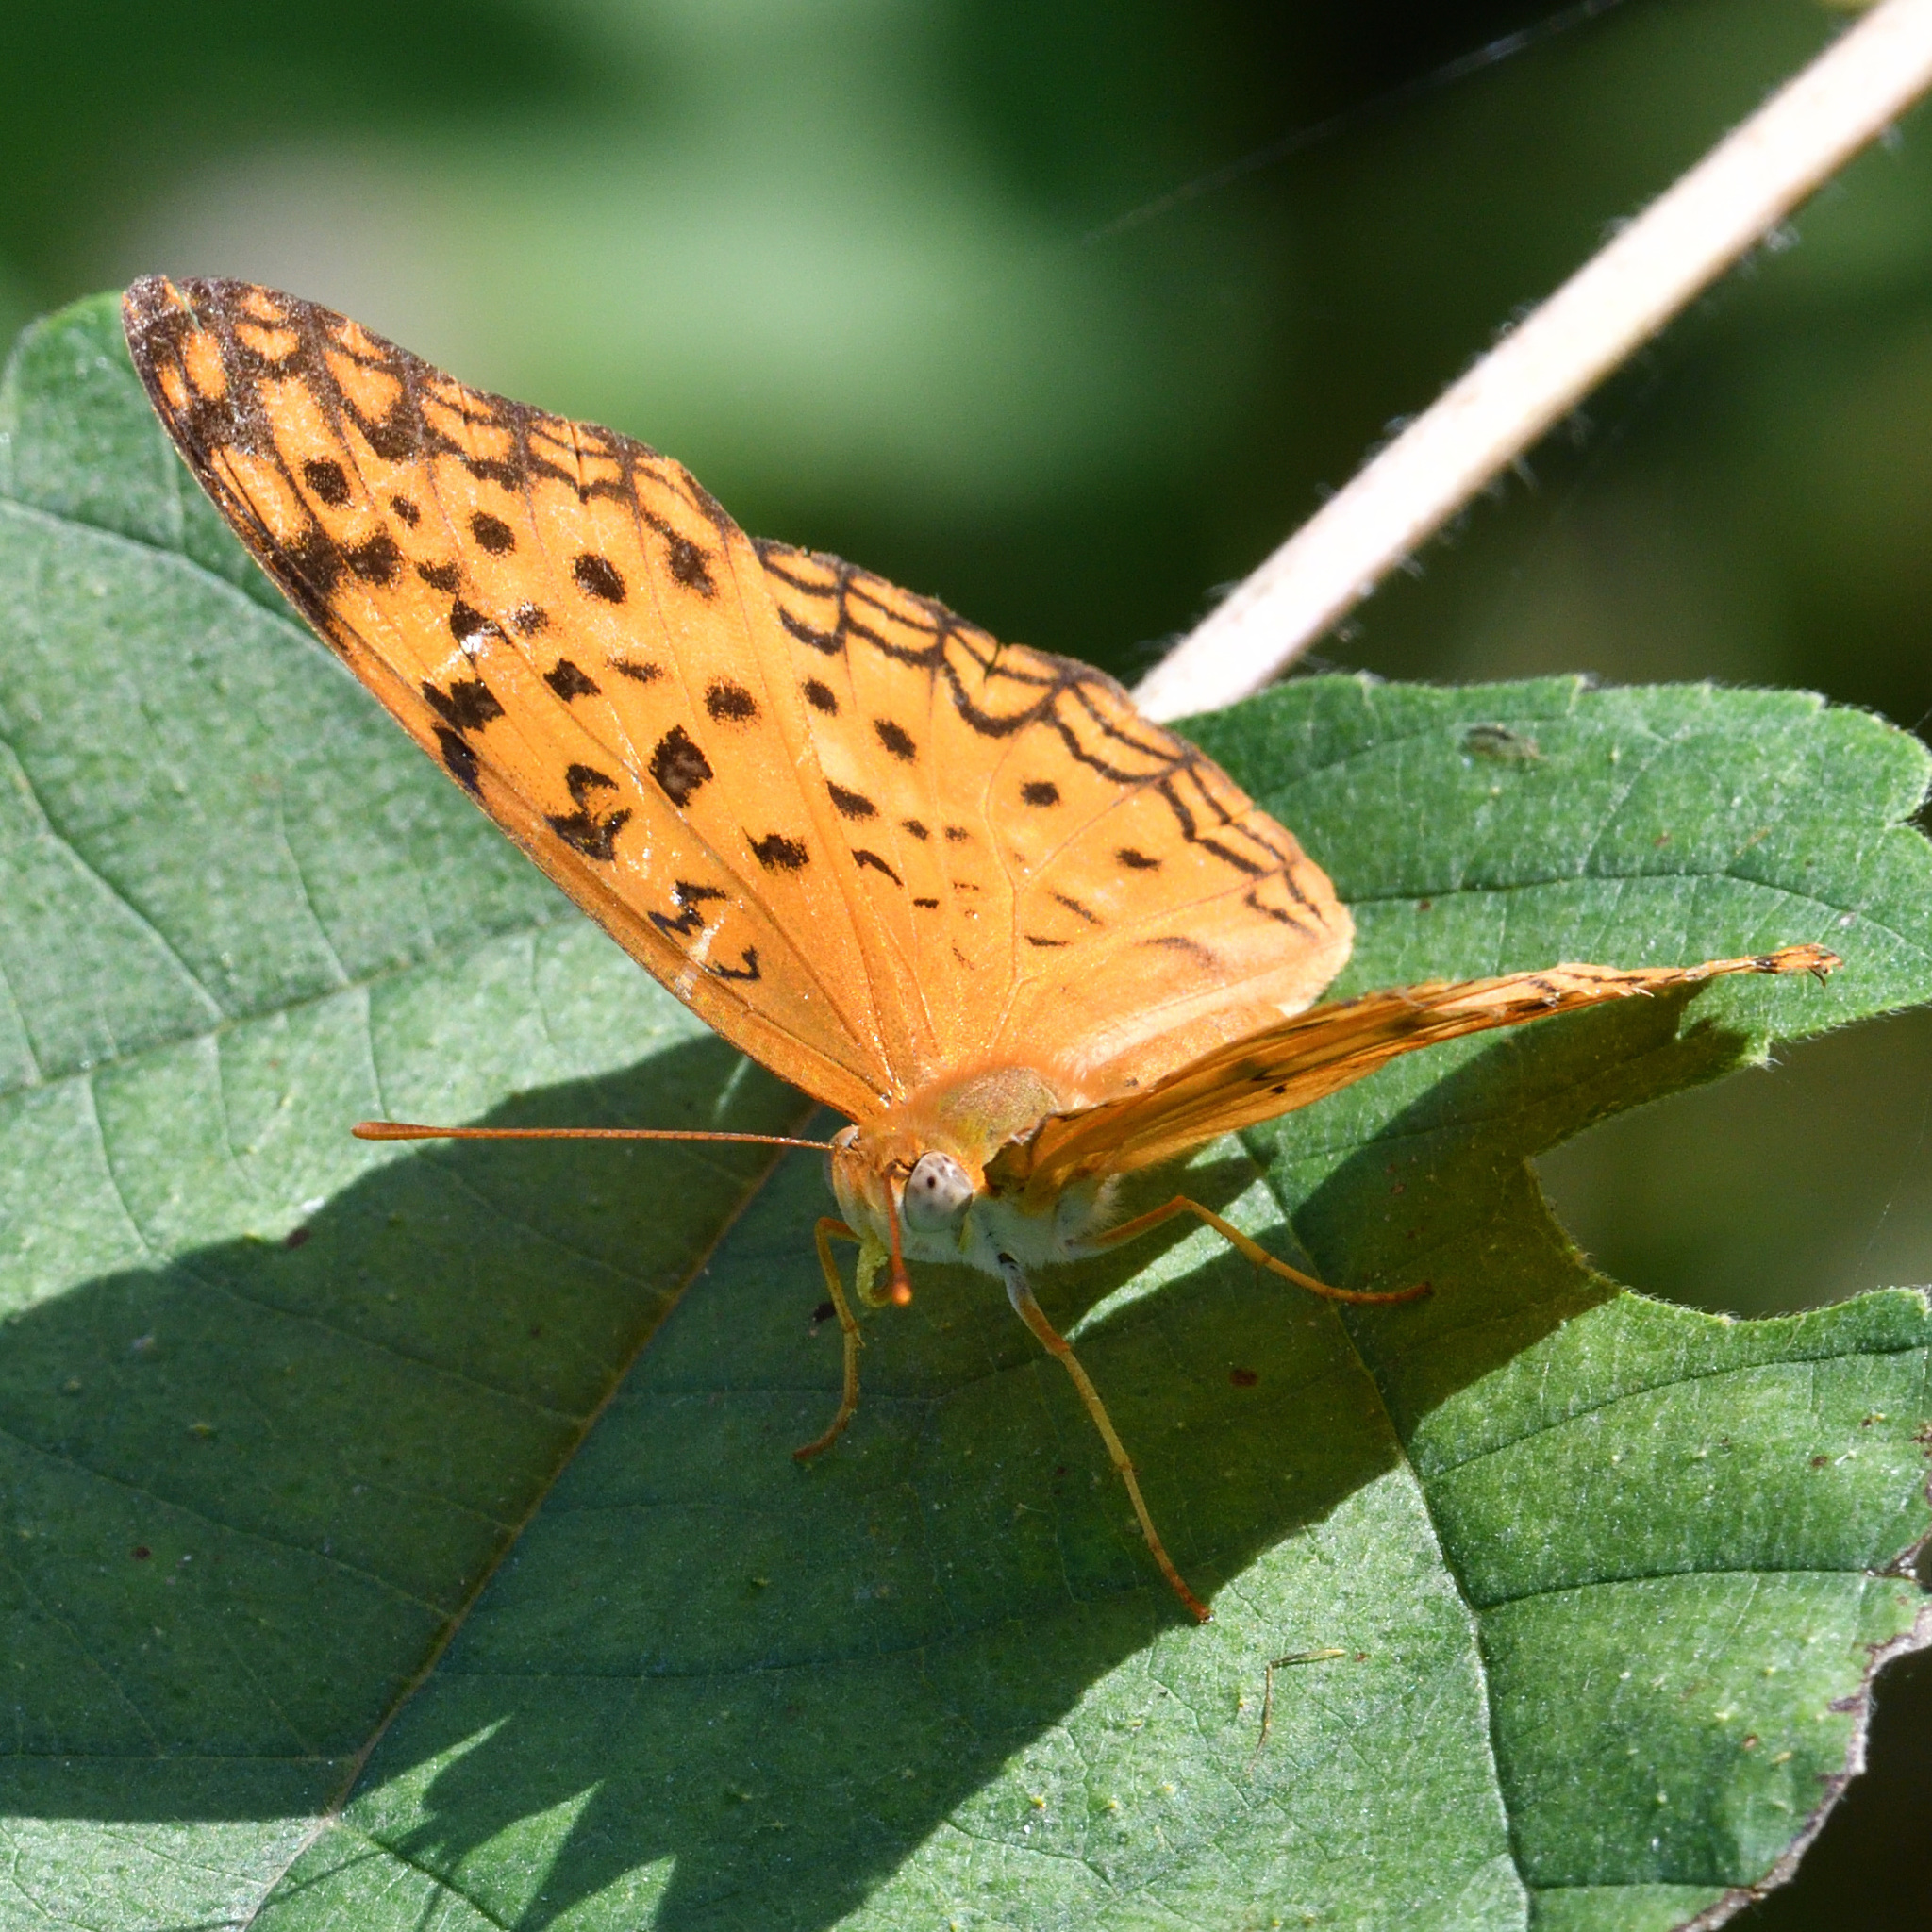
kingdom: Animalia
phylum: Arthropoda
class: Insecta
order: Lepidoptera
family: Nymphalidae
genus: Phalanta
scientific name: Phalanta phalantha
